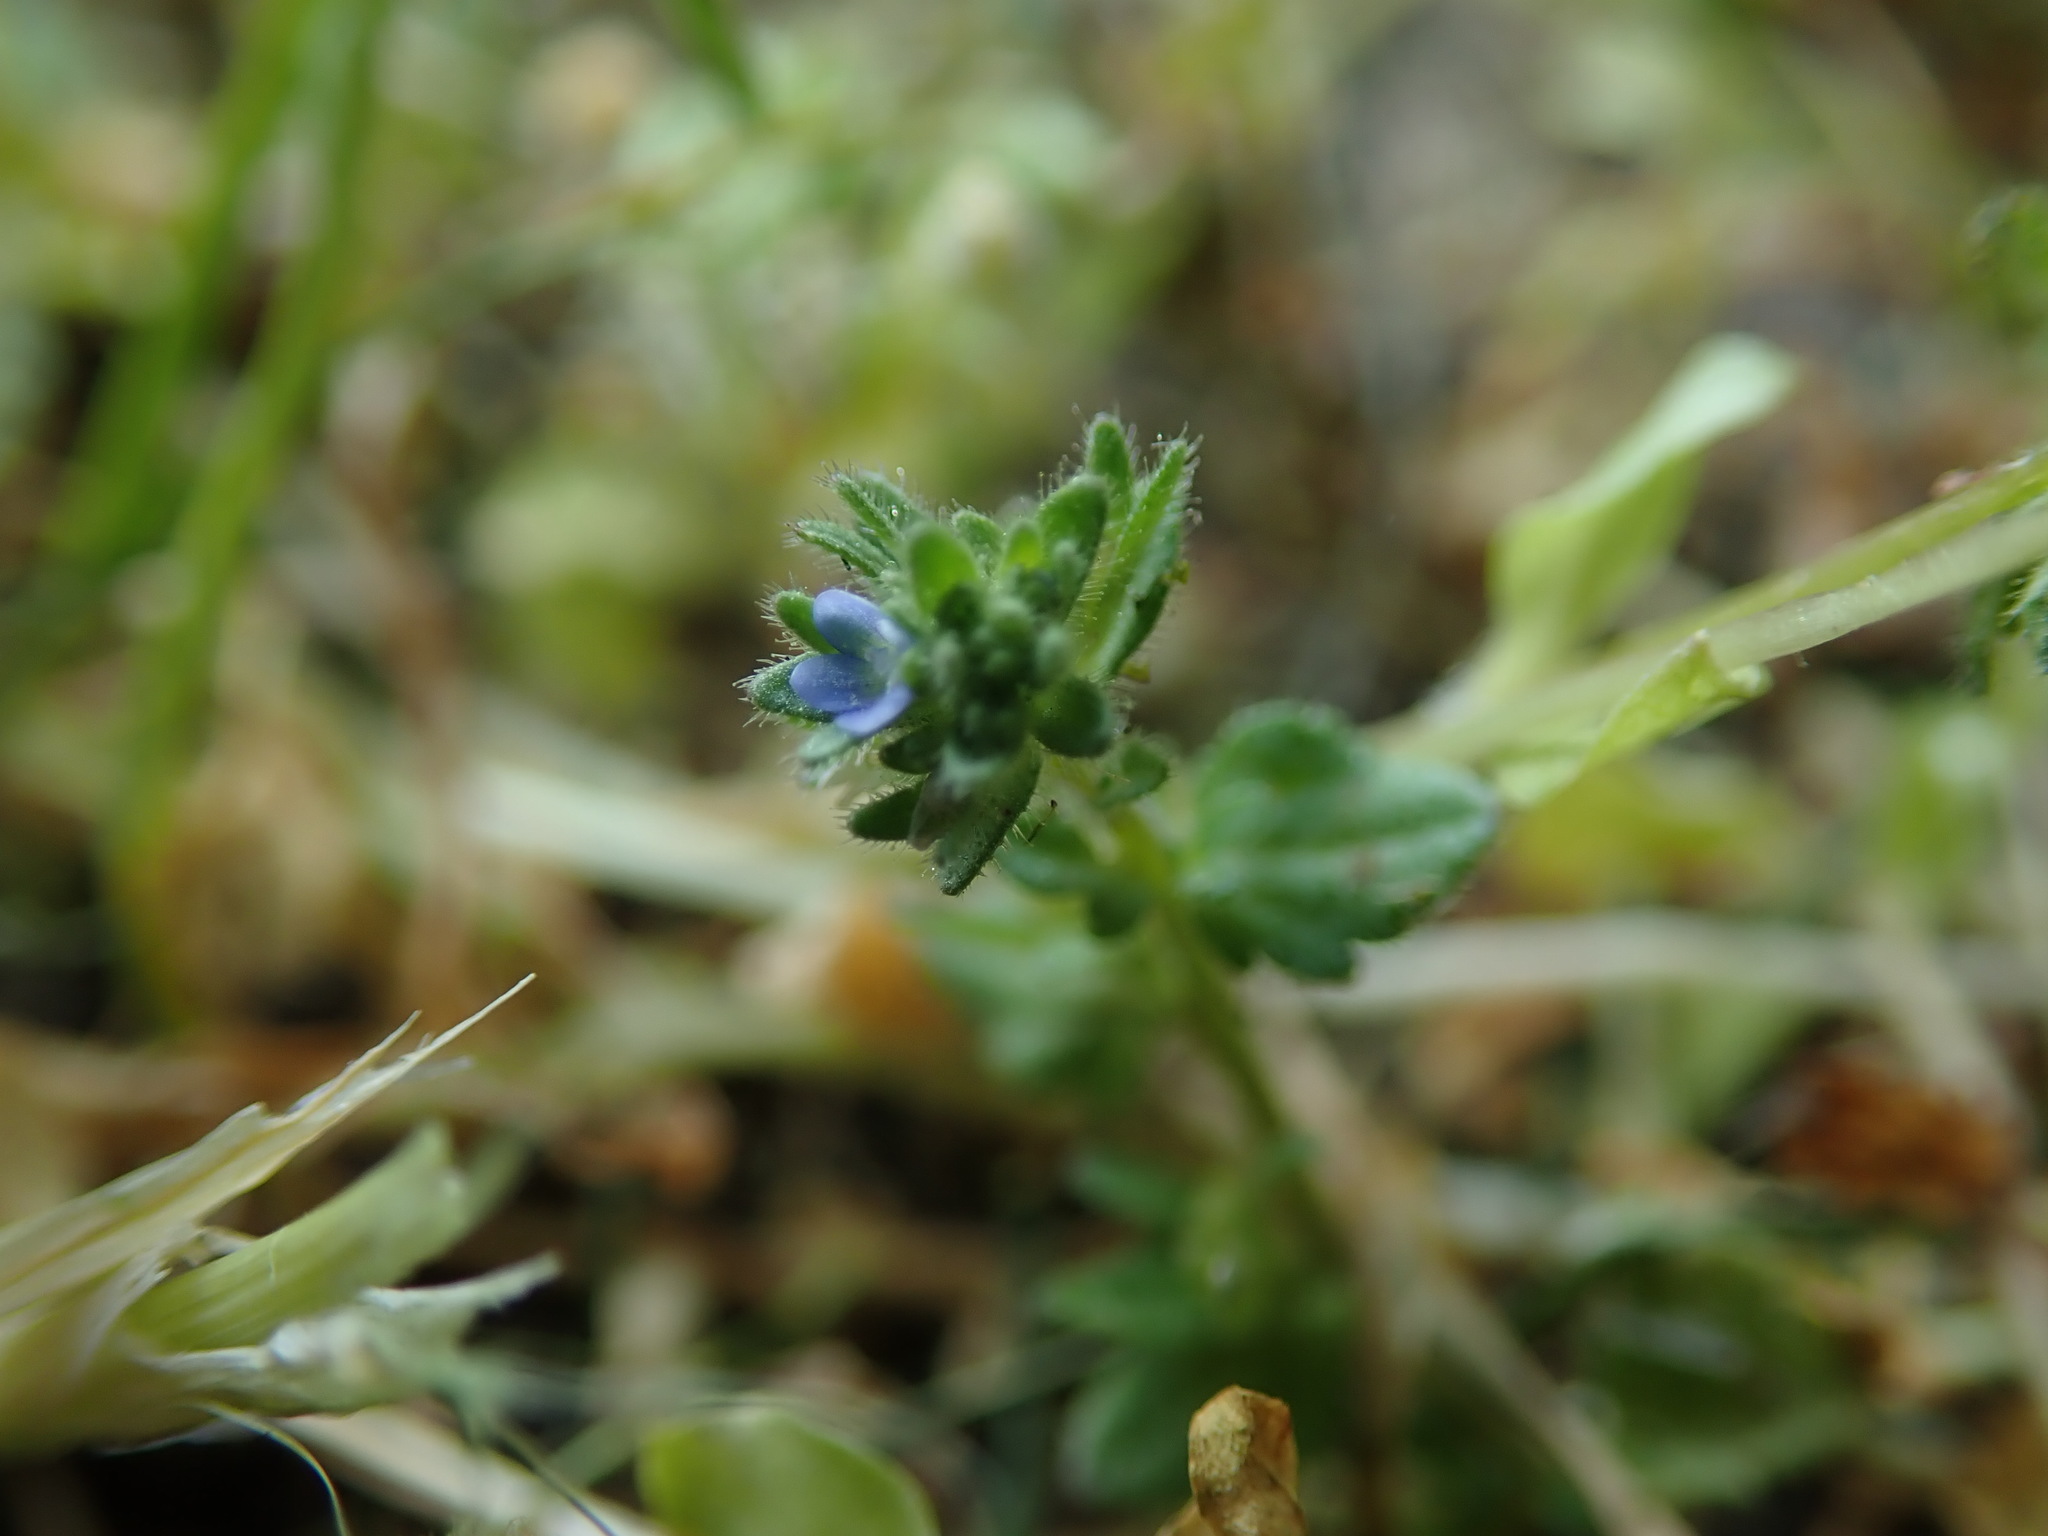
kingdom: Plantae
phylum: Tracheophyta
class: Magnoliopsida
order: Lamiales
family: Plantaginaceae
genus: Veronica
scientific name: Veronica arvensis
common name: Corn speedwell
